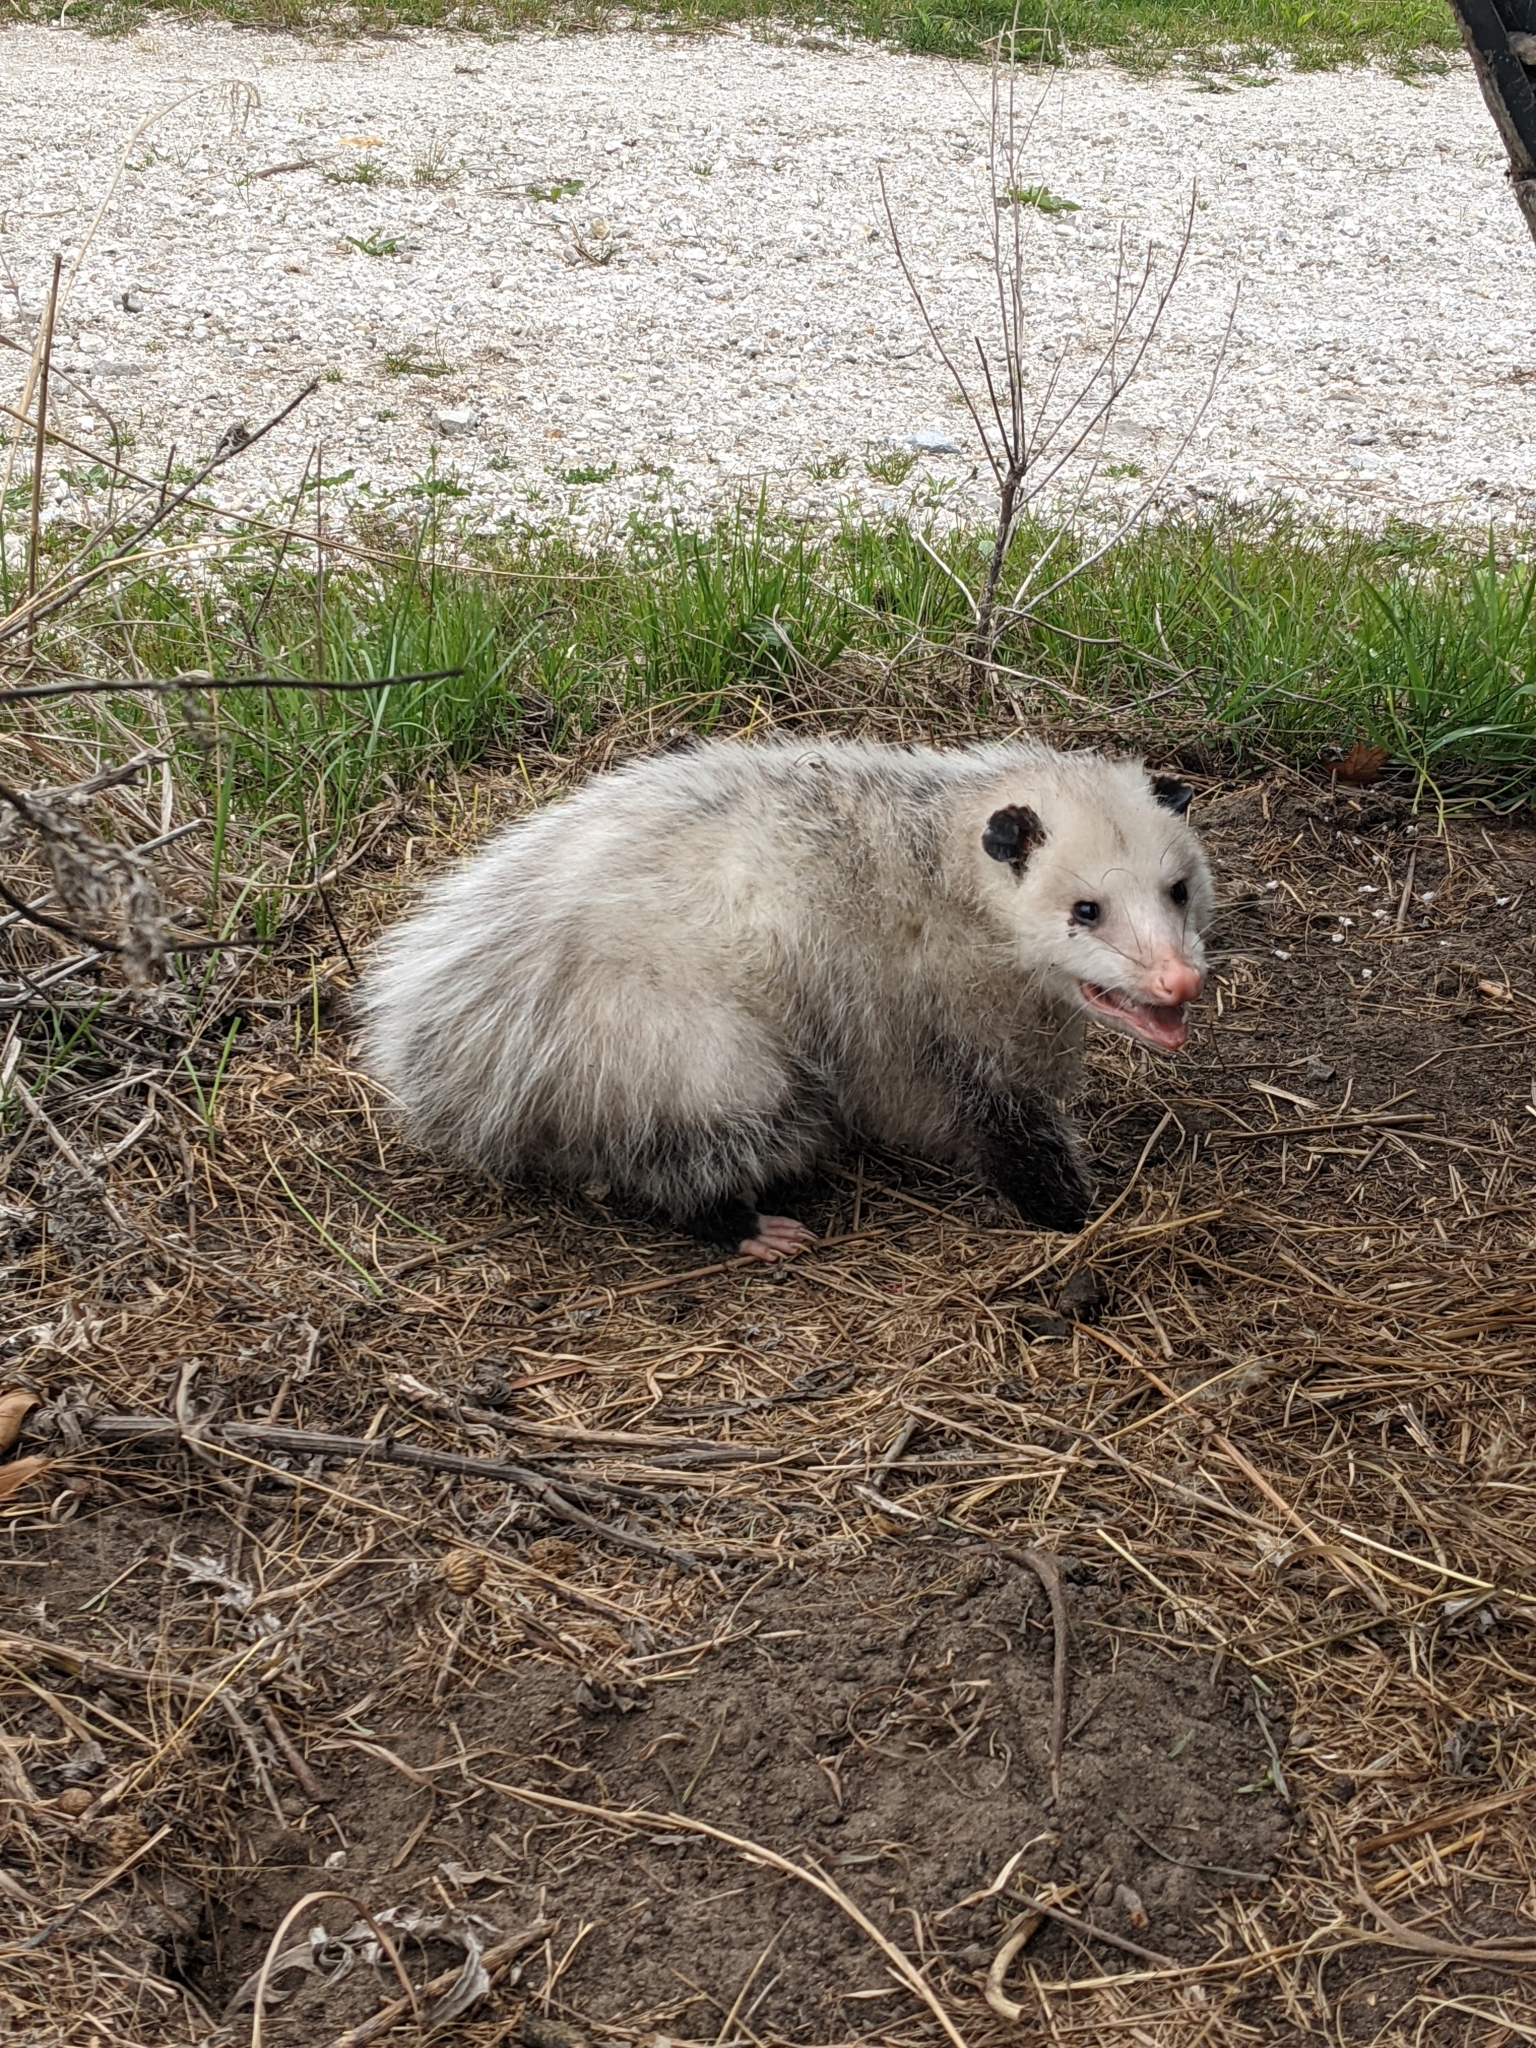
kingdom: Animalia
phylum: Chordata
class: Mammalia
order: Didelphimorphia
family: Didelphidae
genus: Didelphis
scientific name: Didelphis virginiana
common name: Virginia opossum
